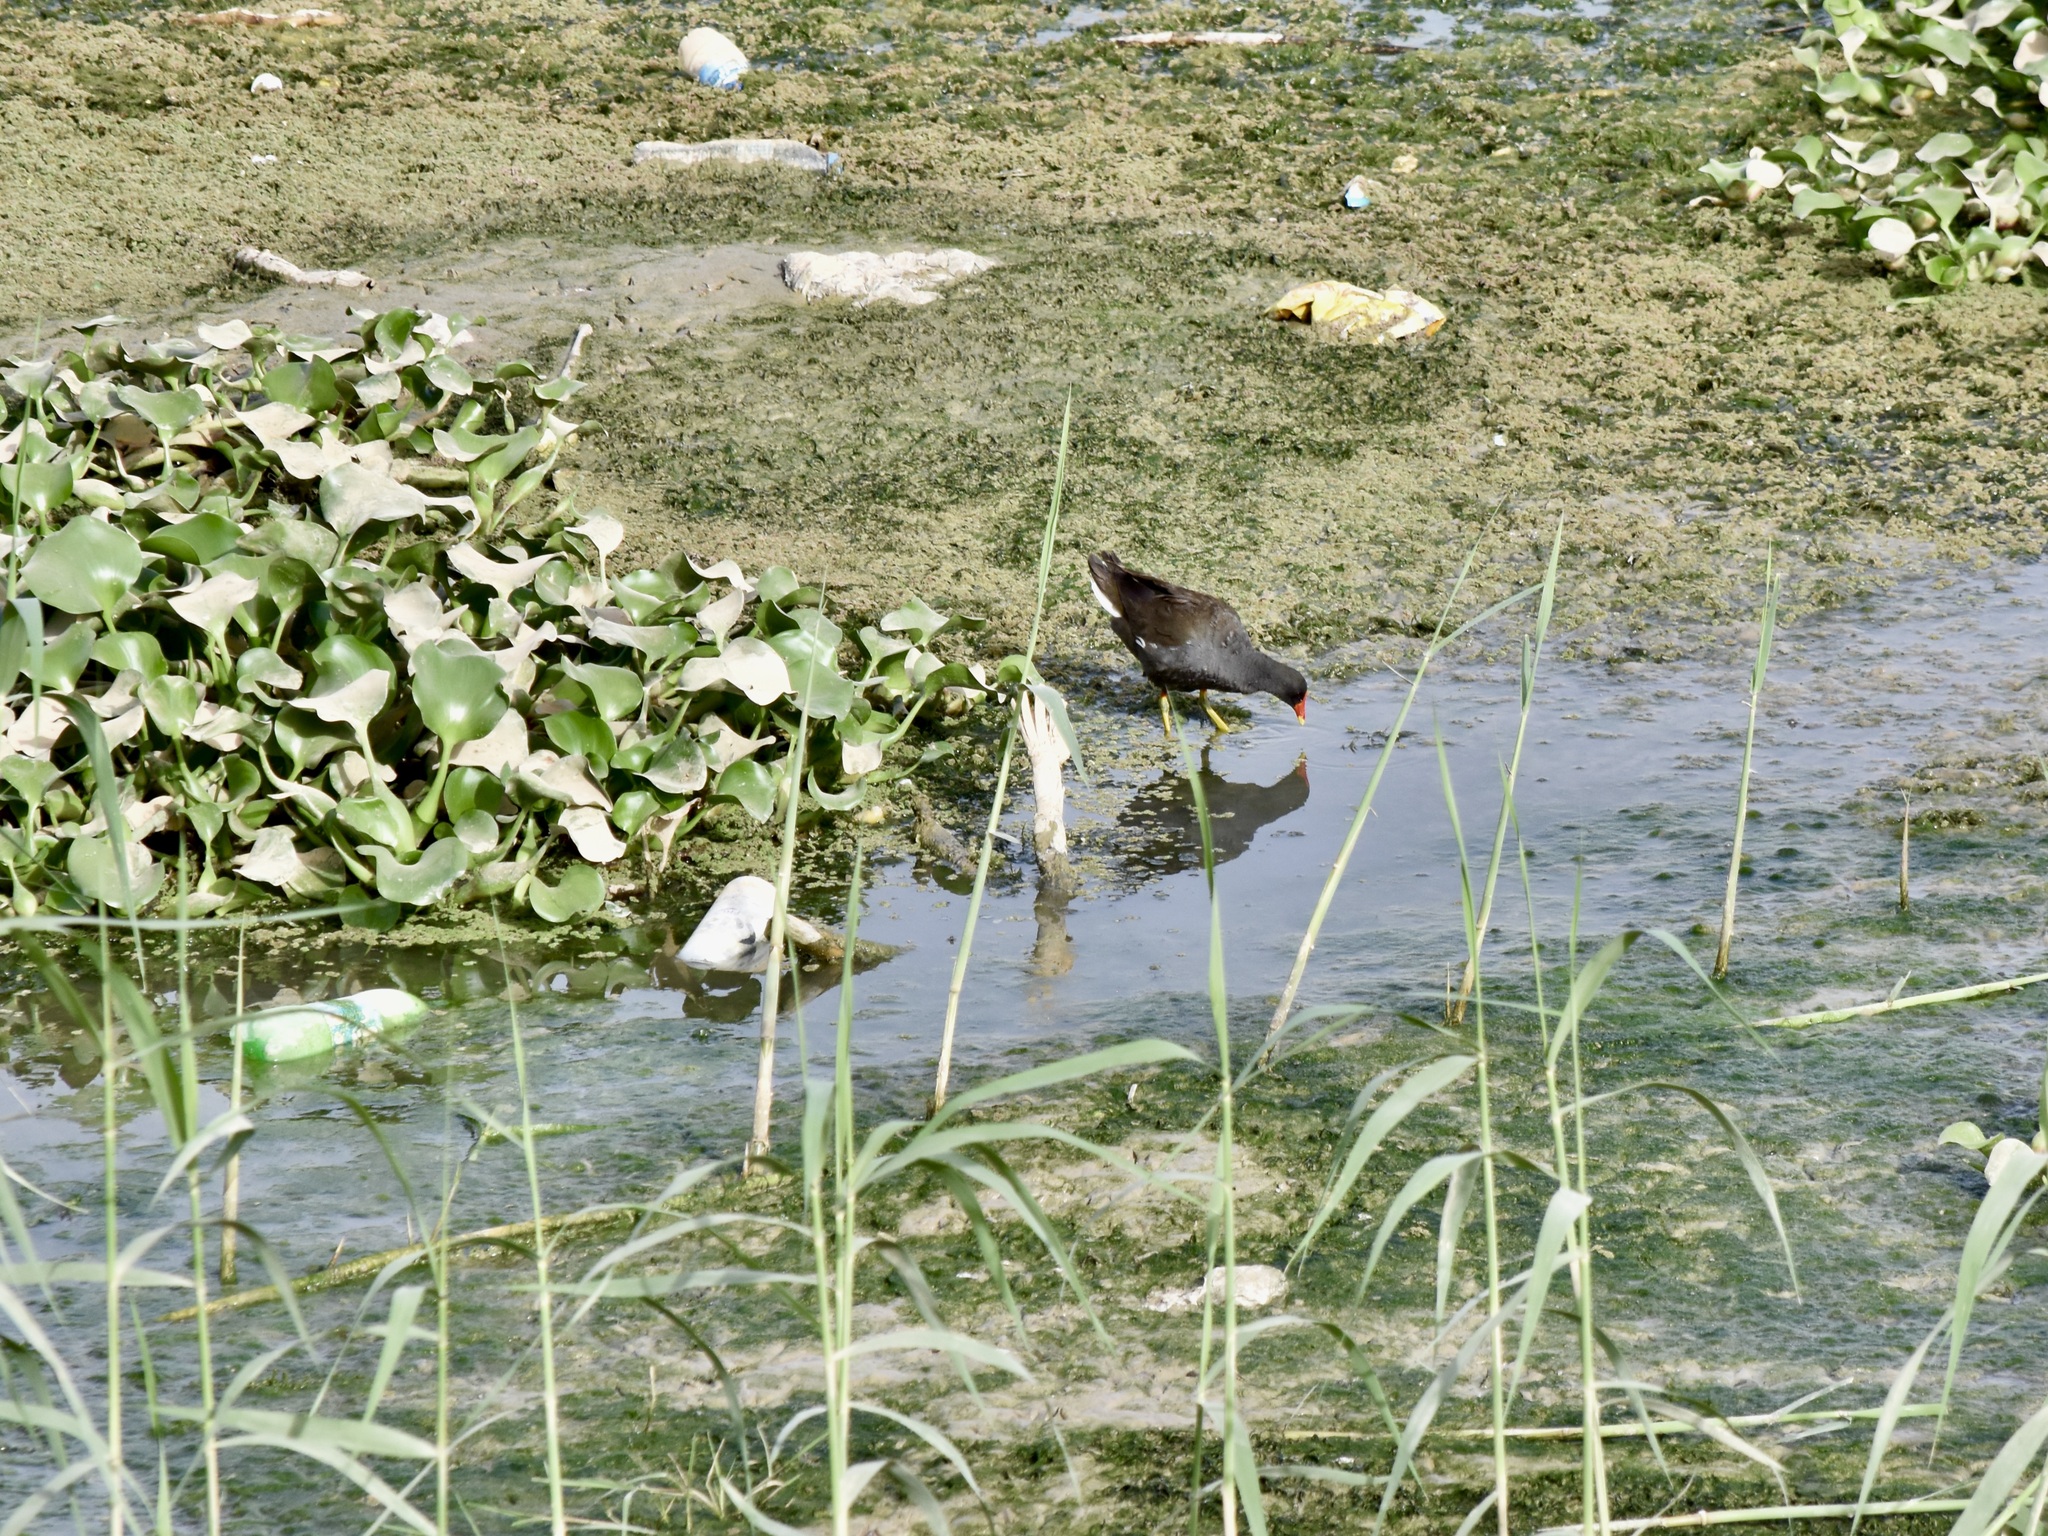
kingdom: Animalia
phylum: Chordata
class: Aves
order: Gruiformes
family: Rallidae
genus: Gallinula
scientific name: Gallinula chloropus
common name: Common moorhen
